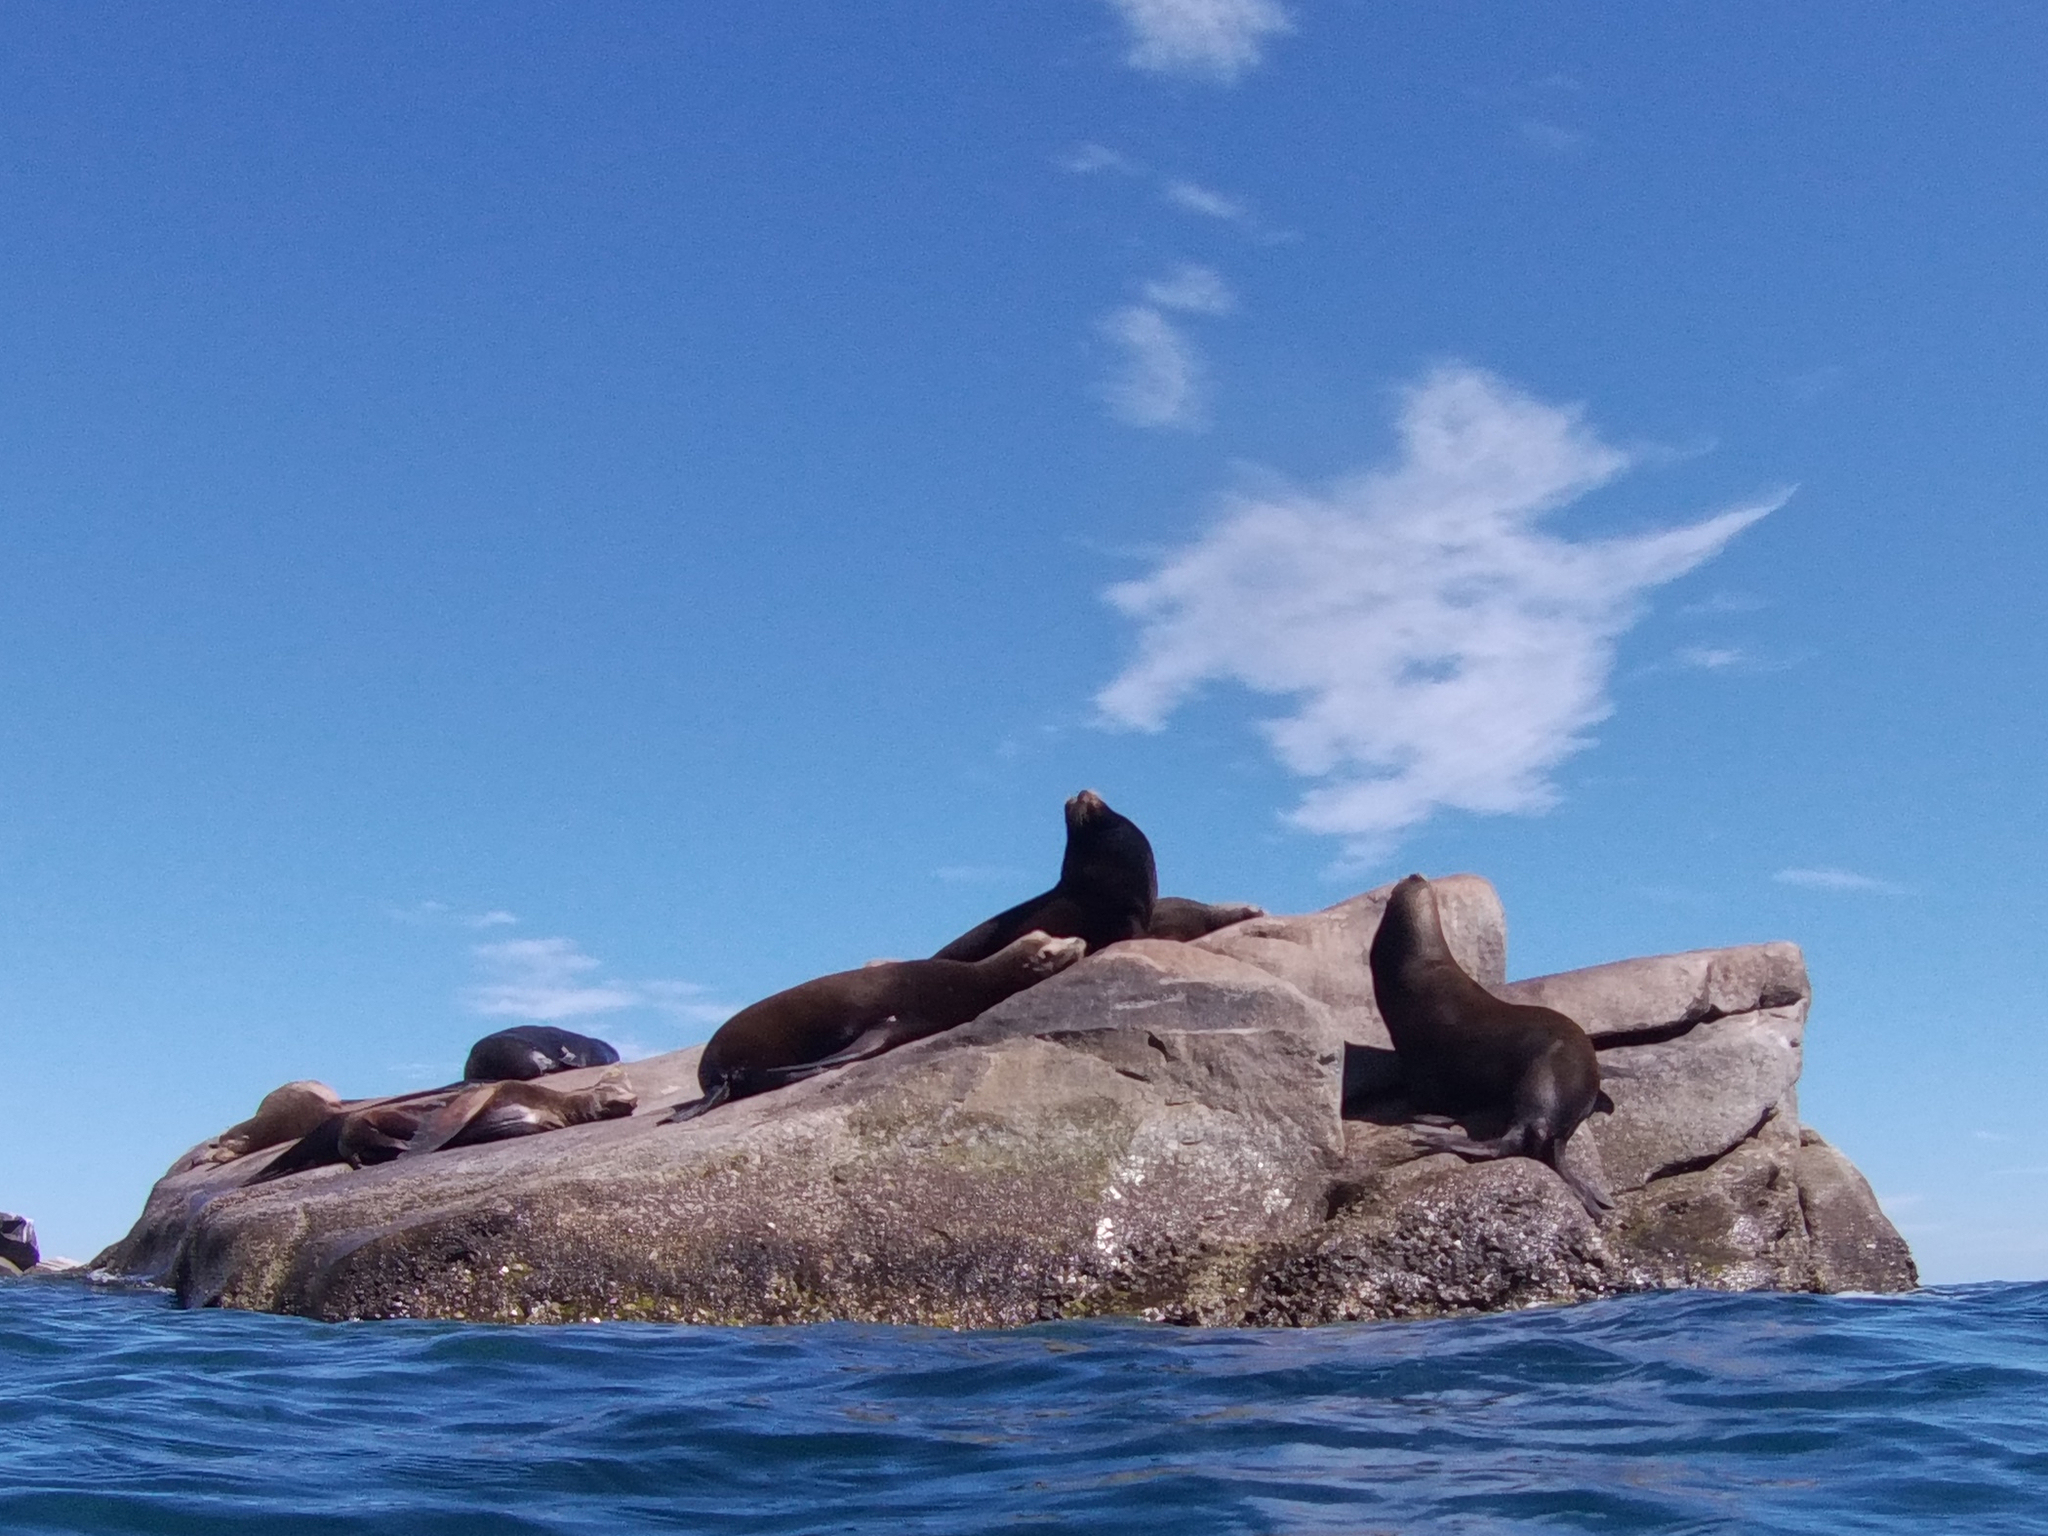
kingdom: Animalia
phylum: Chordata
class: Mammalia
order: Carnivora
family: Otariidae
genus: Zalophus
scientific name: Zalophus californianus
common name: California sea lion
